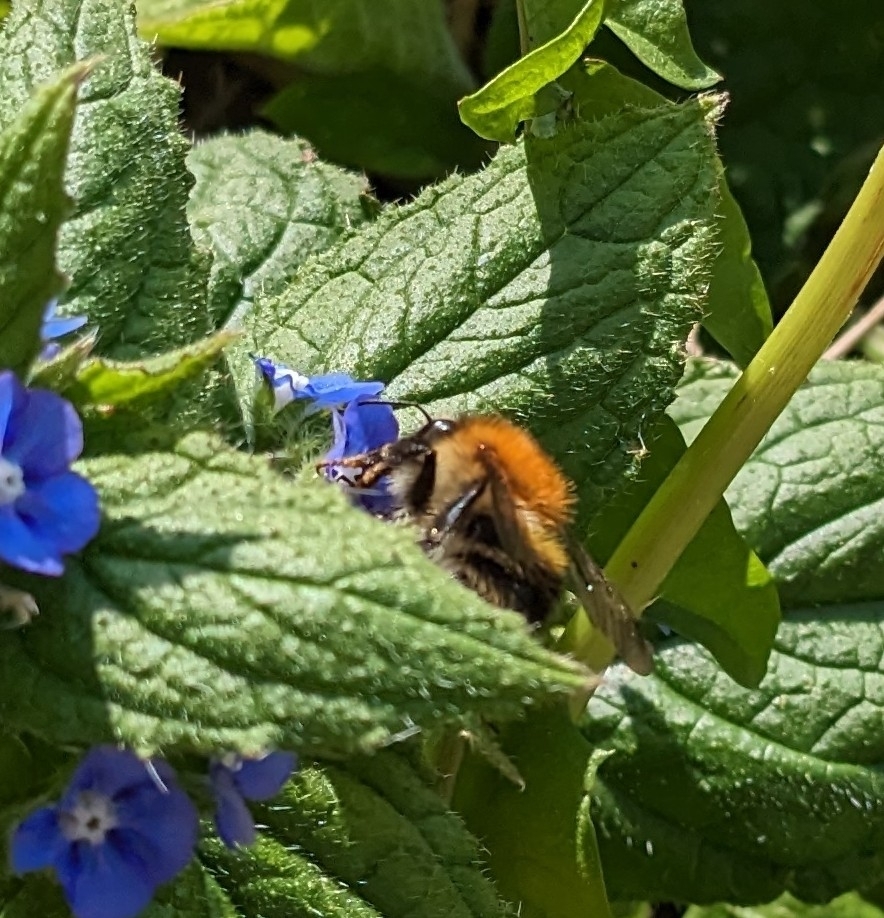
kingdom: Animalia
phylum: Arthropoda
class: Insecta
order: Hymenoptera
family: Apidae
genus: Bombus
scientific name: Bombus pascuorum
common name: Common carder bee
